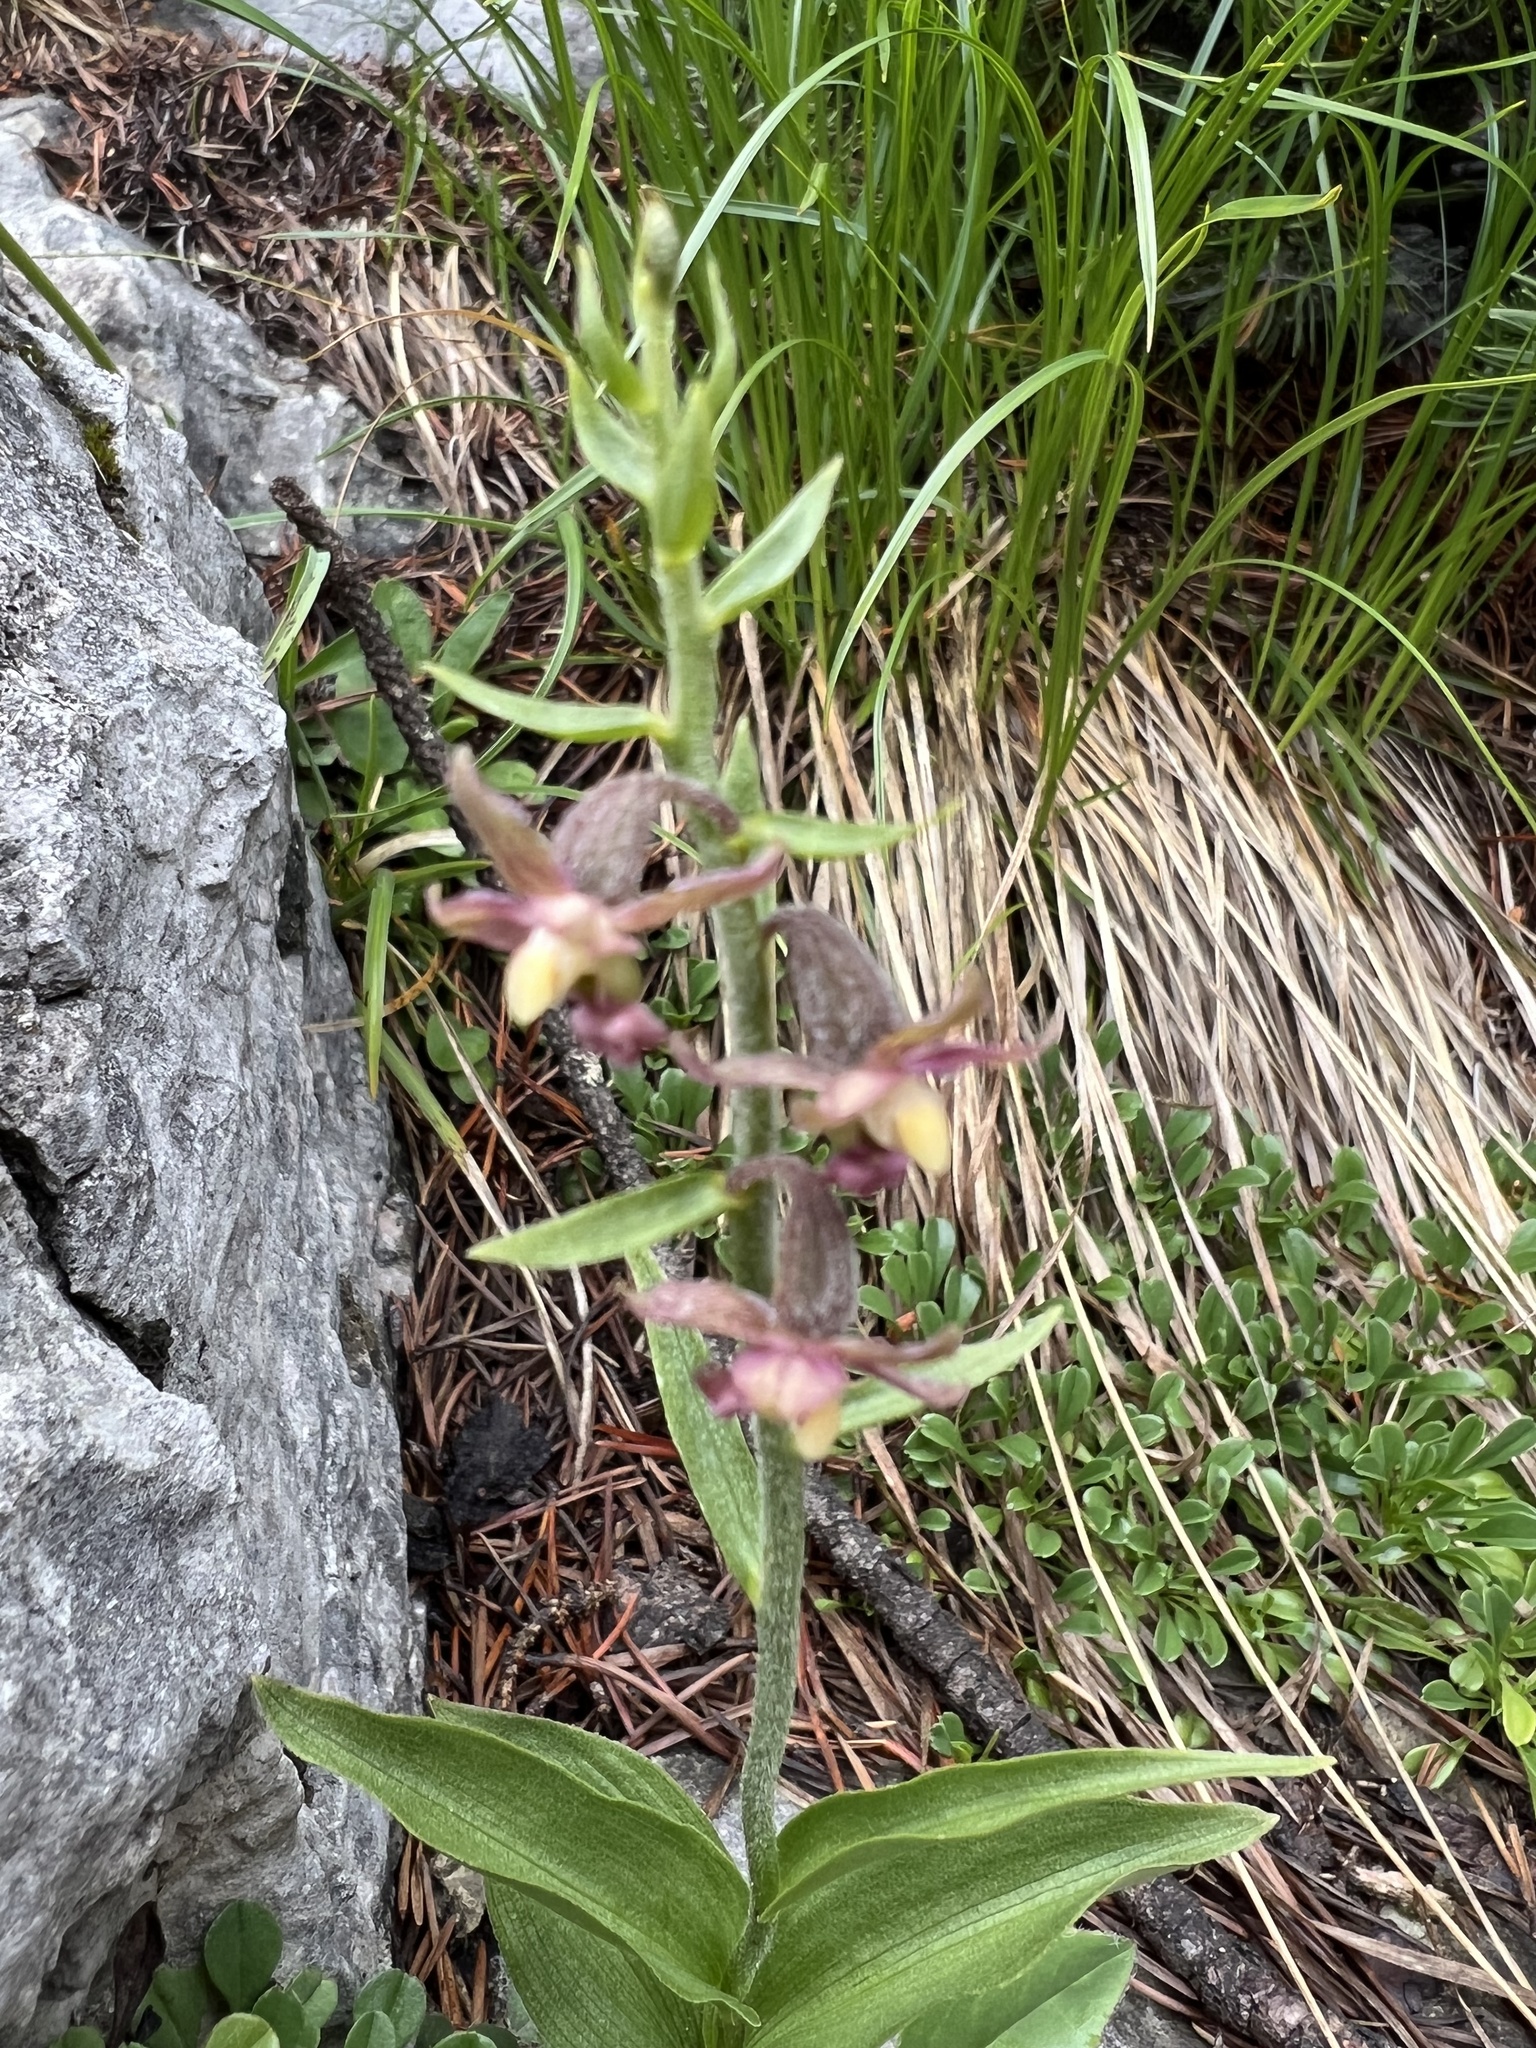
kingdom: Plantae
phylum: Tracheophyta
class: Liliopsida
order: Asparagales
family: Orchidaceae
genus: Epipactis
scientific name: Epipactis atrorubens
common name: Dark-red helleborine
